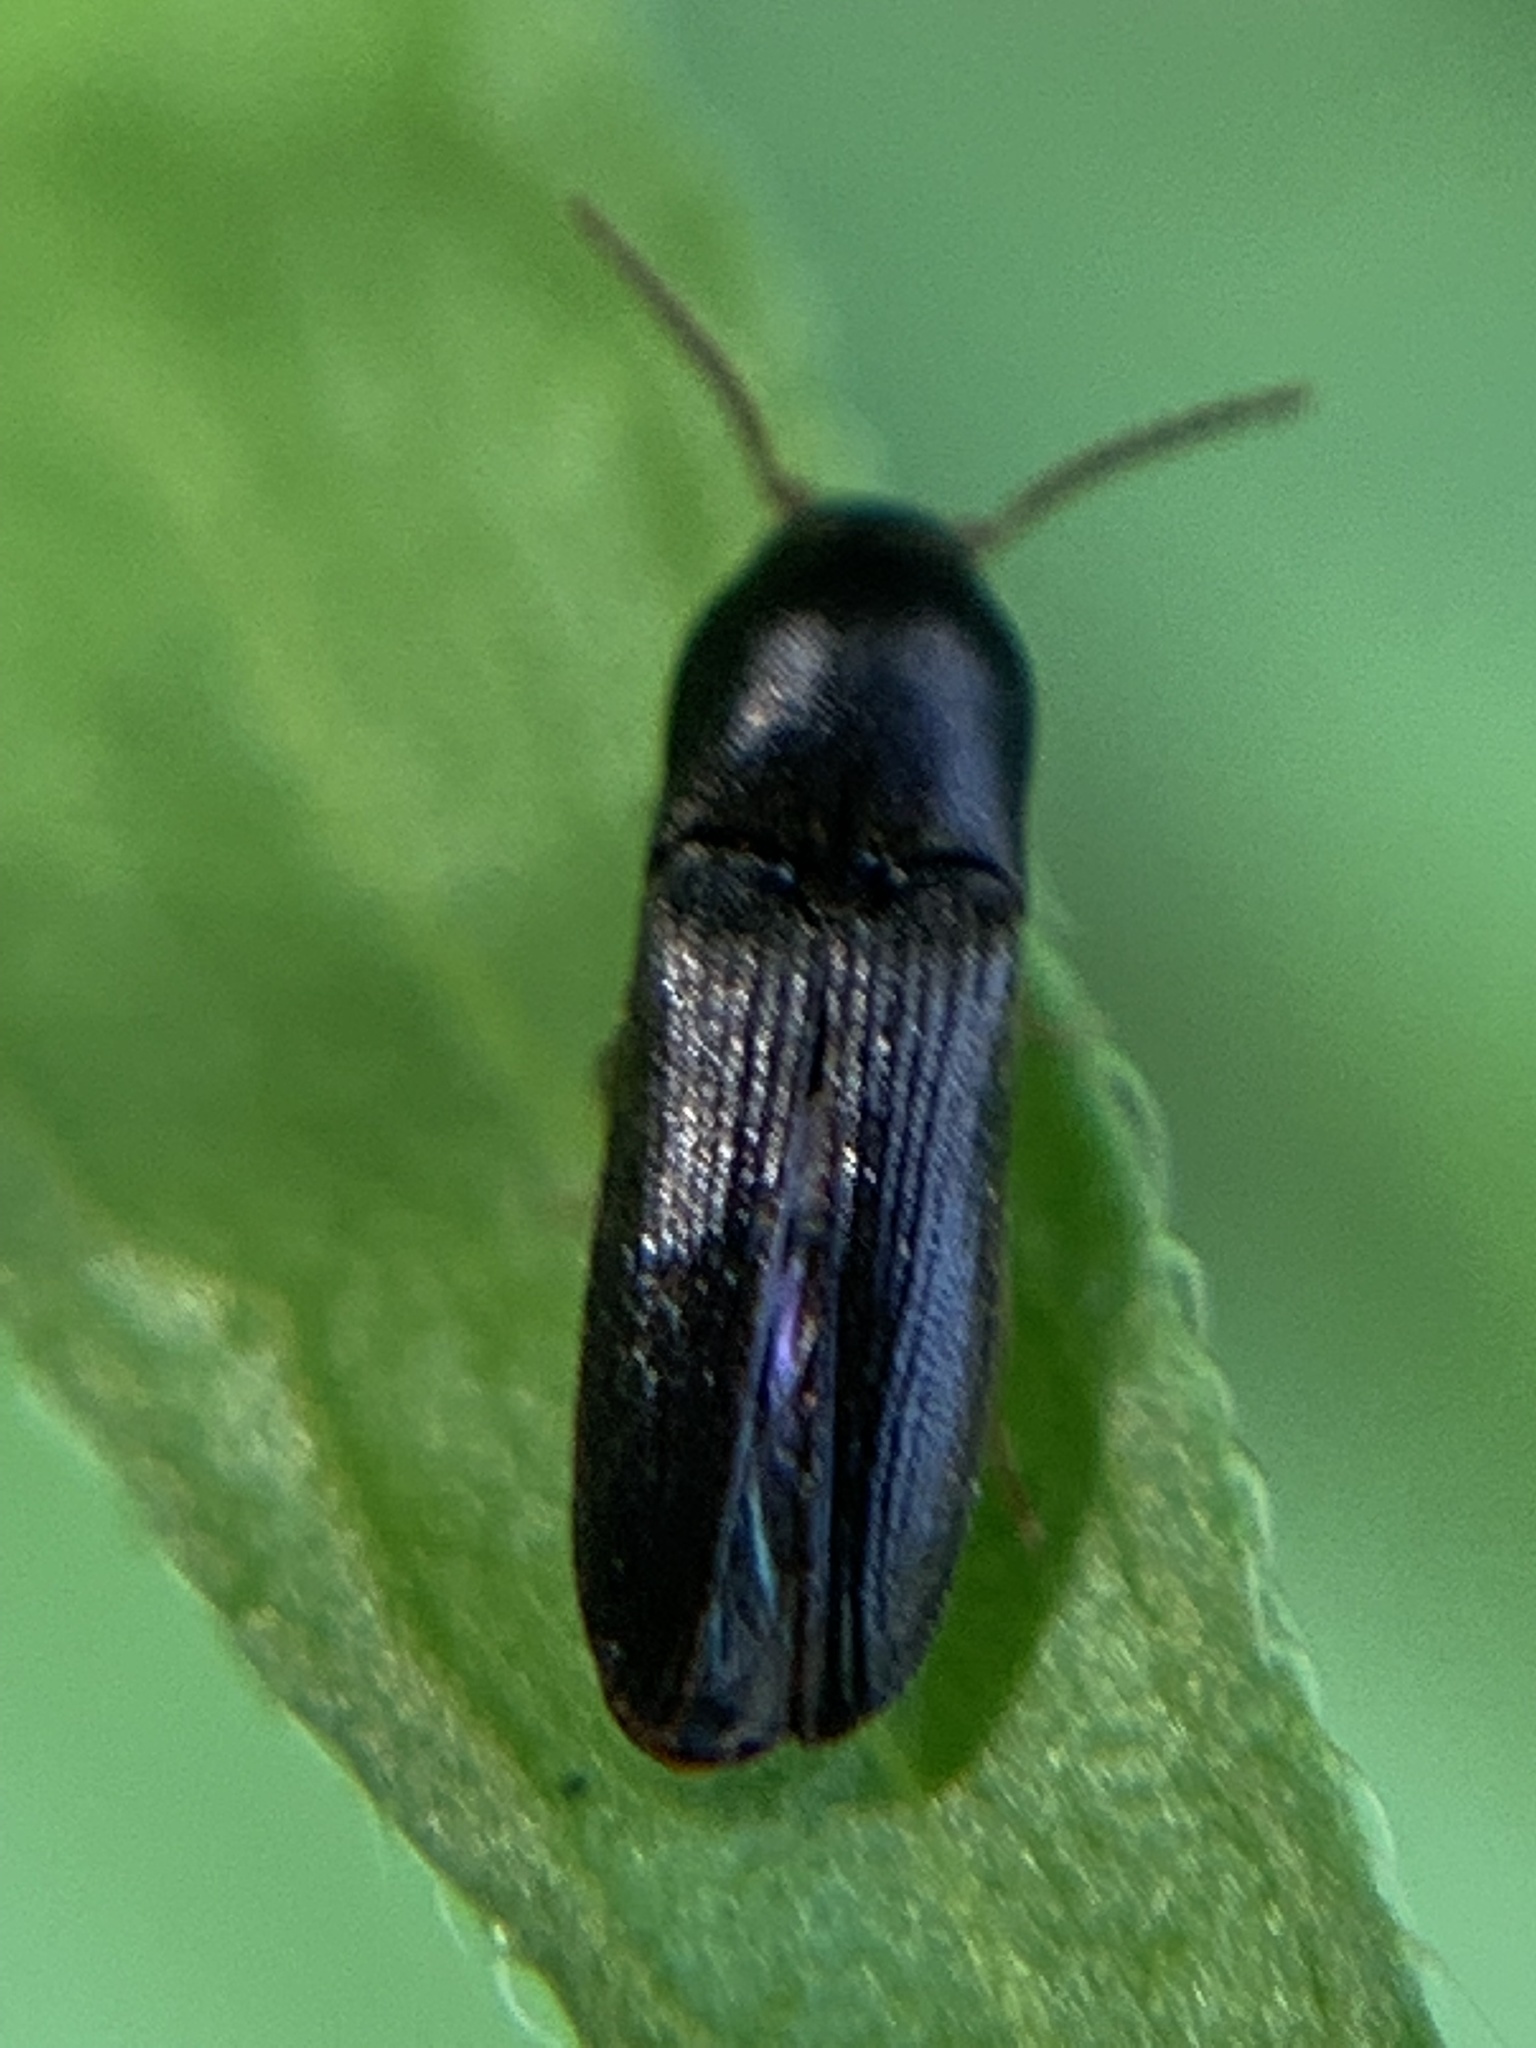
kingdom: Animalia
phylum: Arthropoda
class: Insecta
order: Coleoptera
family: Eucnemidae
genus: Deltometopus
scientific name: Deltometopus amoenicornis
